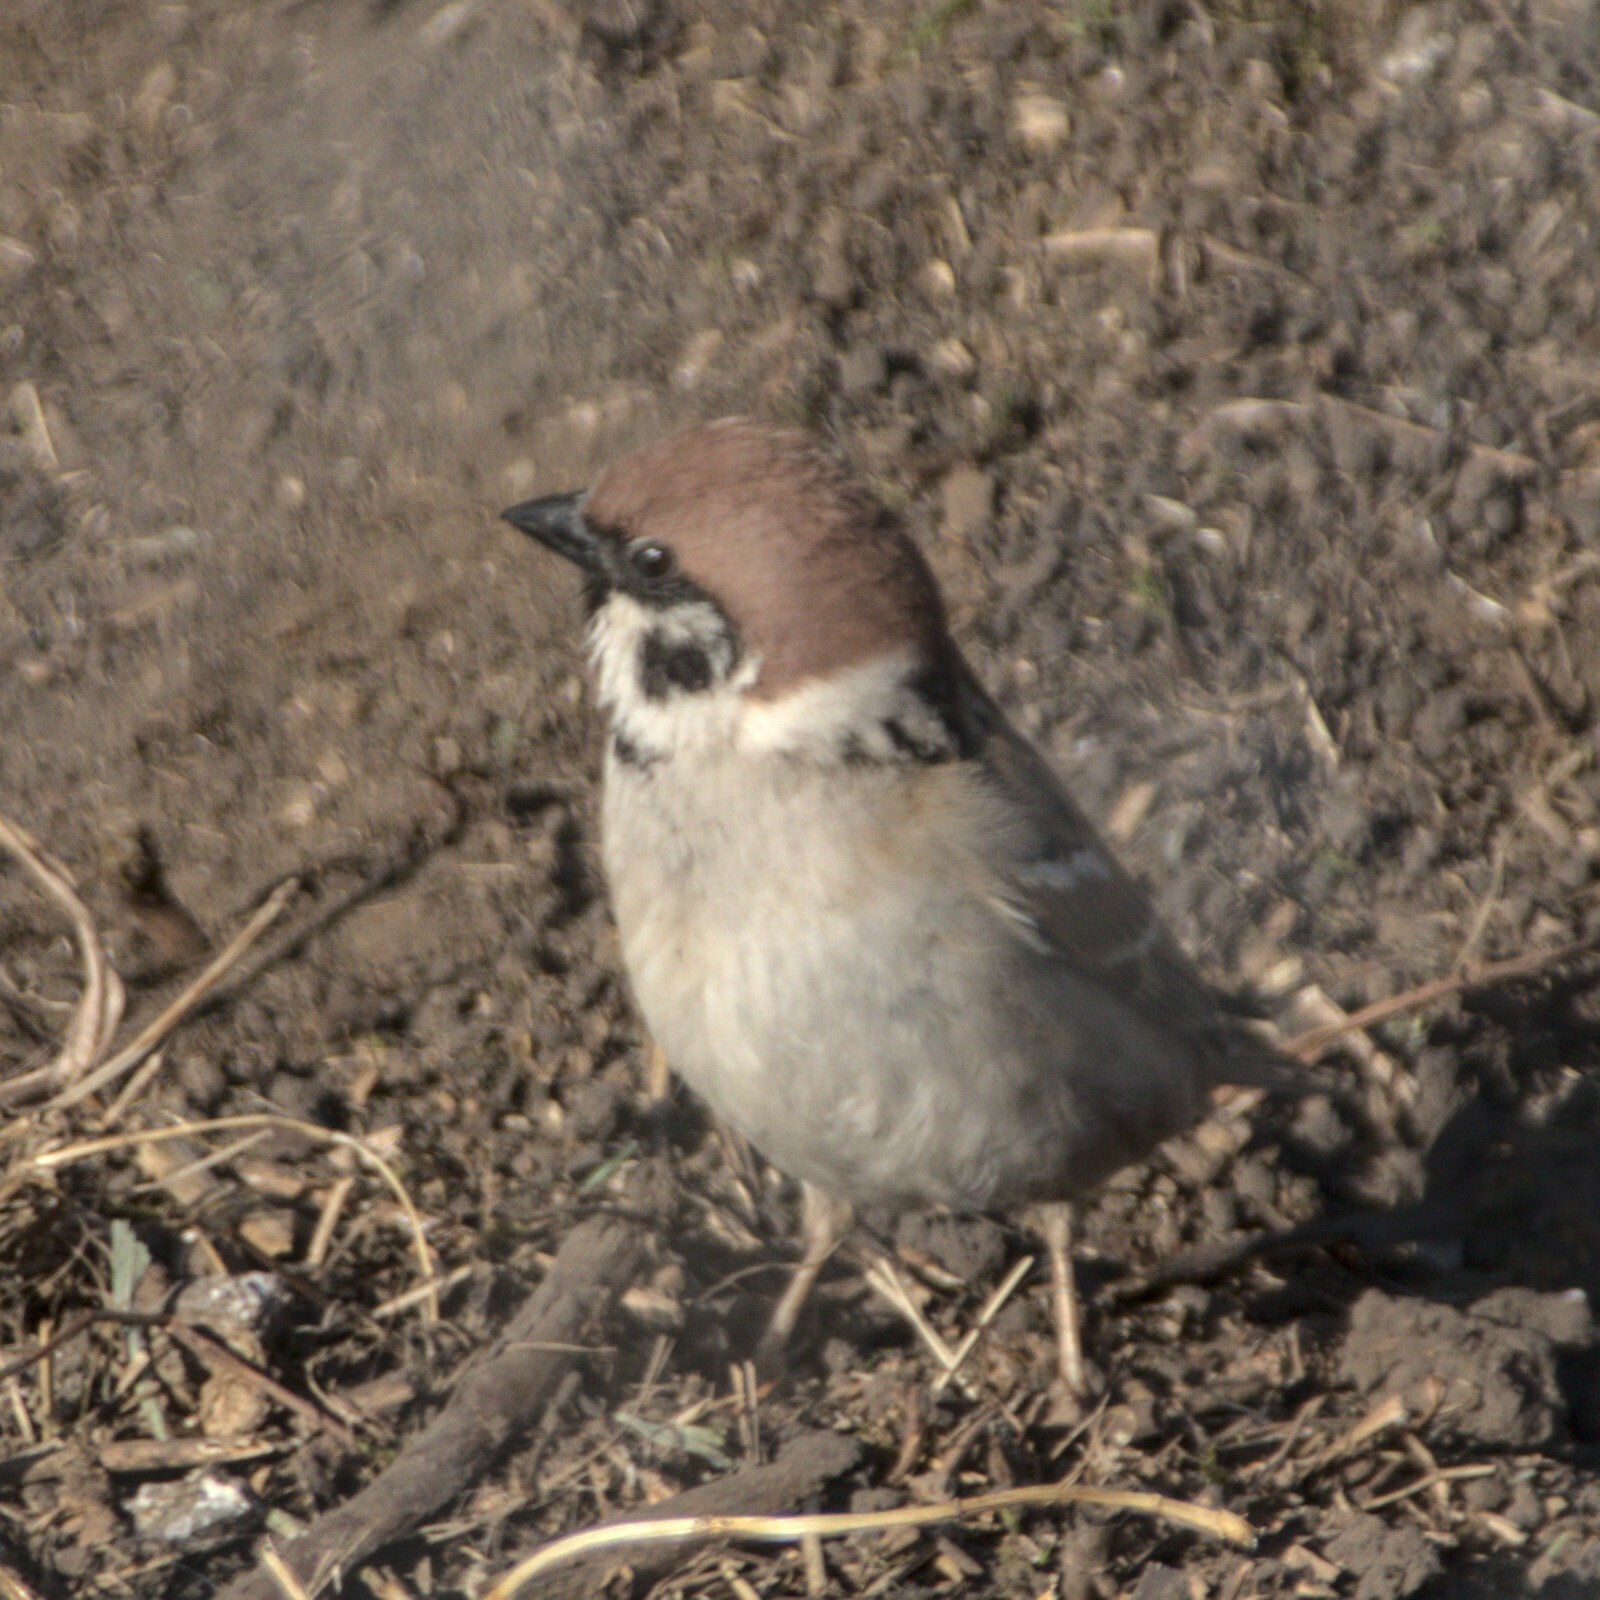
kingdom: Animalia
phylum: Chordata
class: Aves
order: Passeriformes
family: Passeridae
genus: Passer
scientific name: Passer montanus
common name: Eurasian tree sparrow
